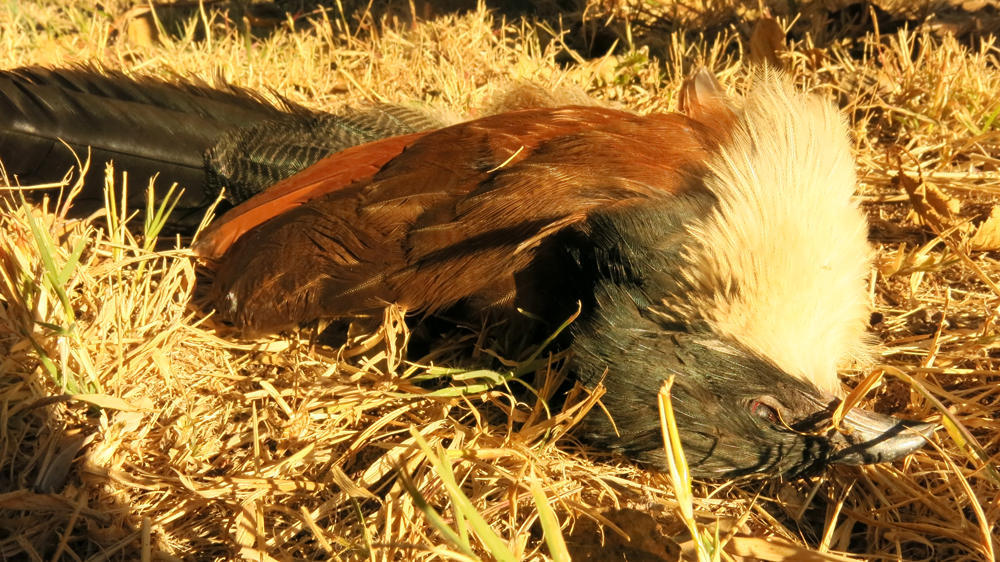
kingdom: Animalia
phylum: Chordata
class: Aves
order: Cuculiformes
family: Cuculidae
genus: Centropus
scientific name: Centropus superciliosus
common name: White-browed coucal
